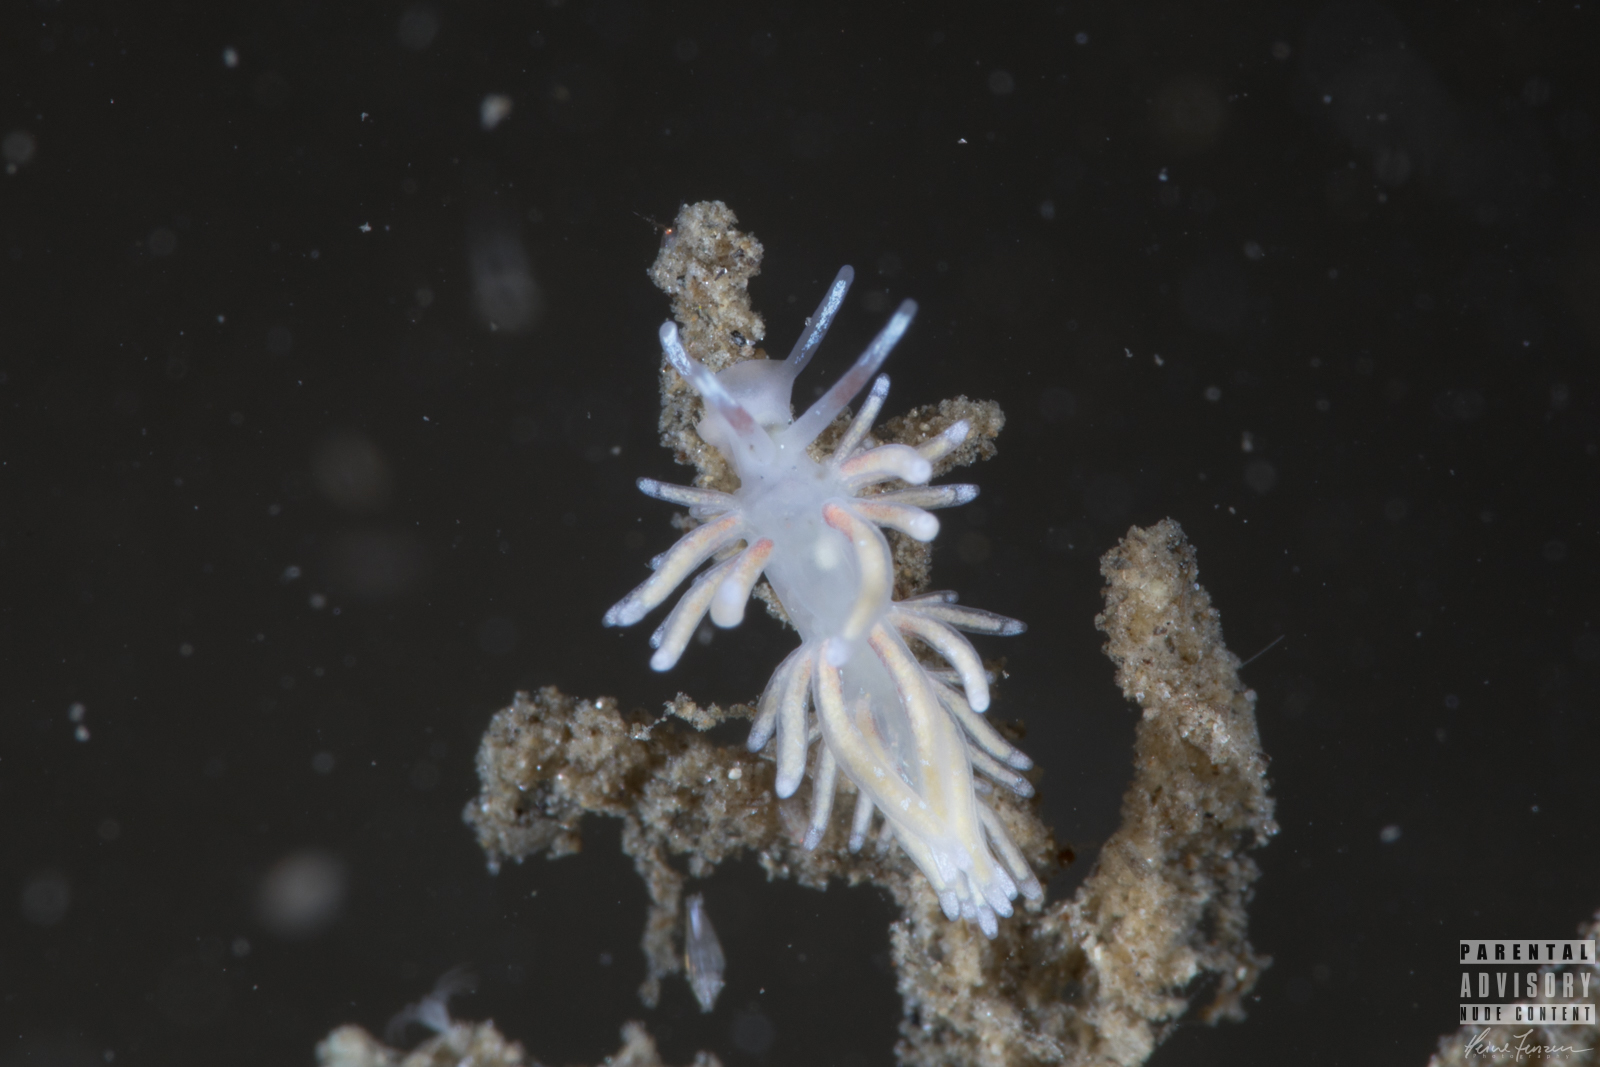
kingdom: Animalia
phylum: Mollusca
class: Gastropoda
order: Nudibranchia
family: Trinchesiidae
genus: Rubramoena
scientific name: Rubramoena rubescens
